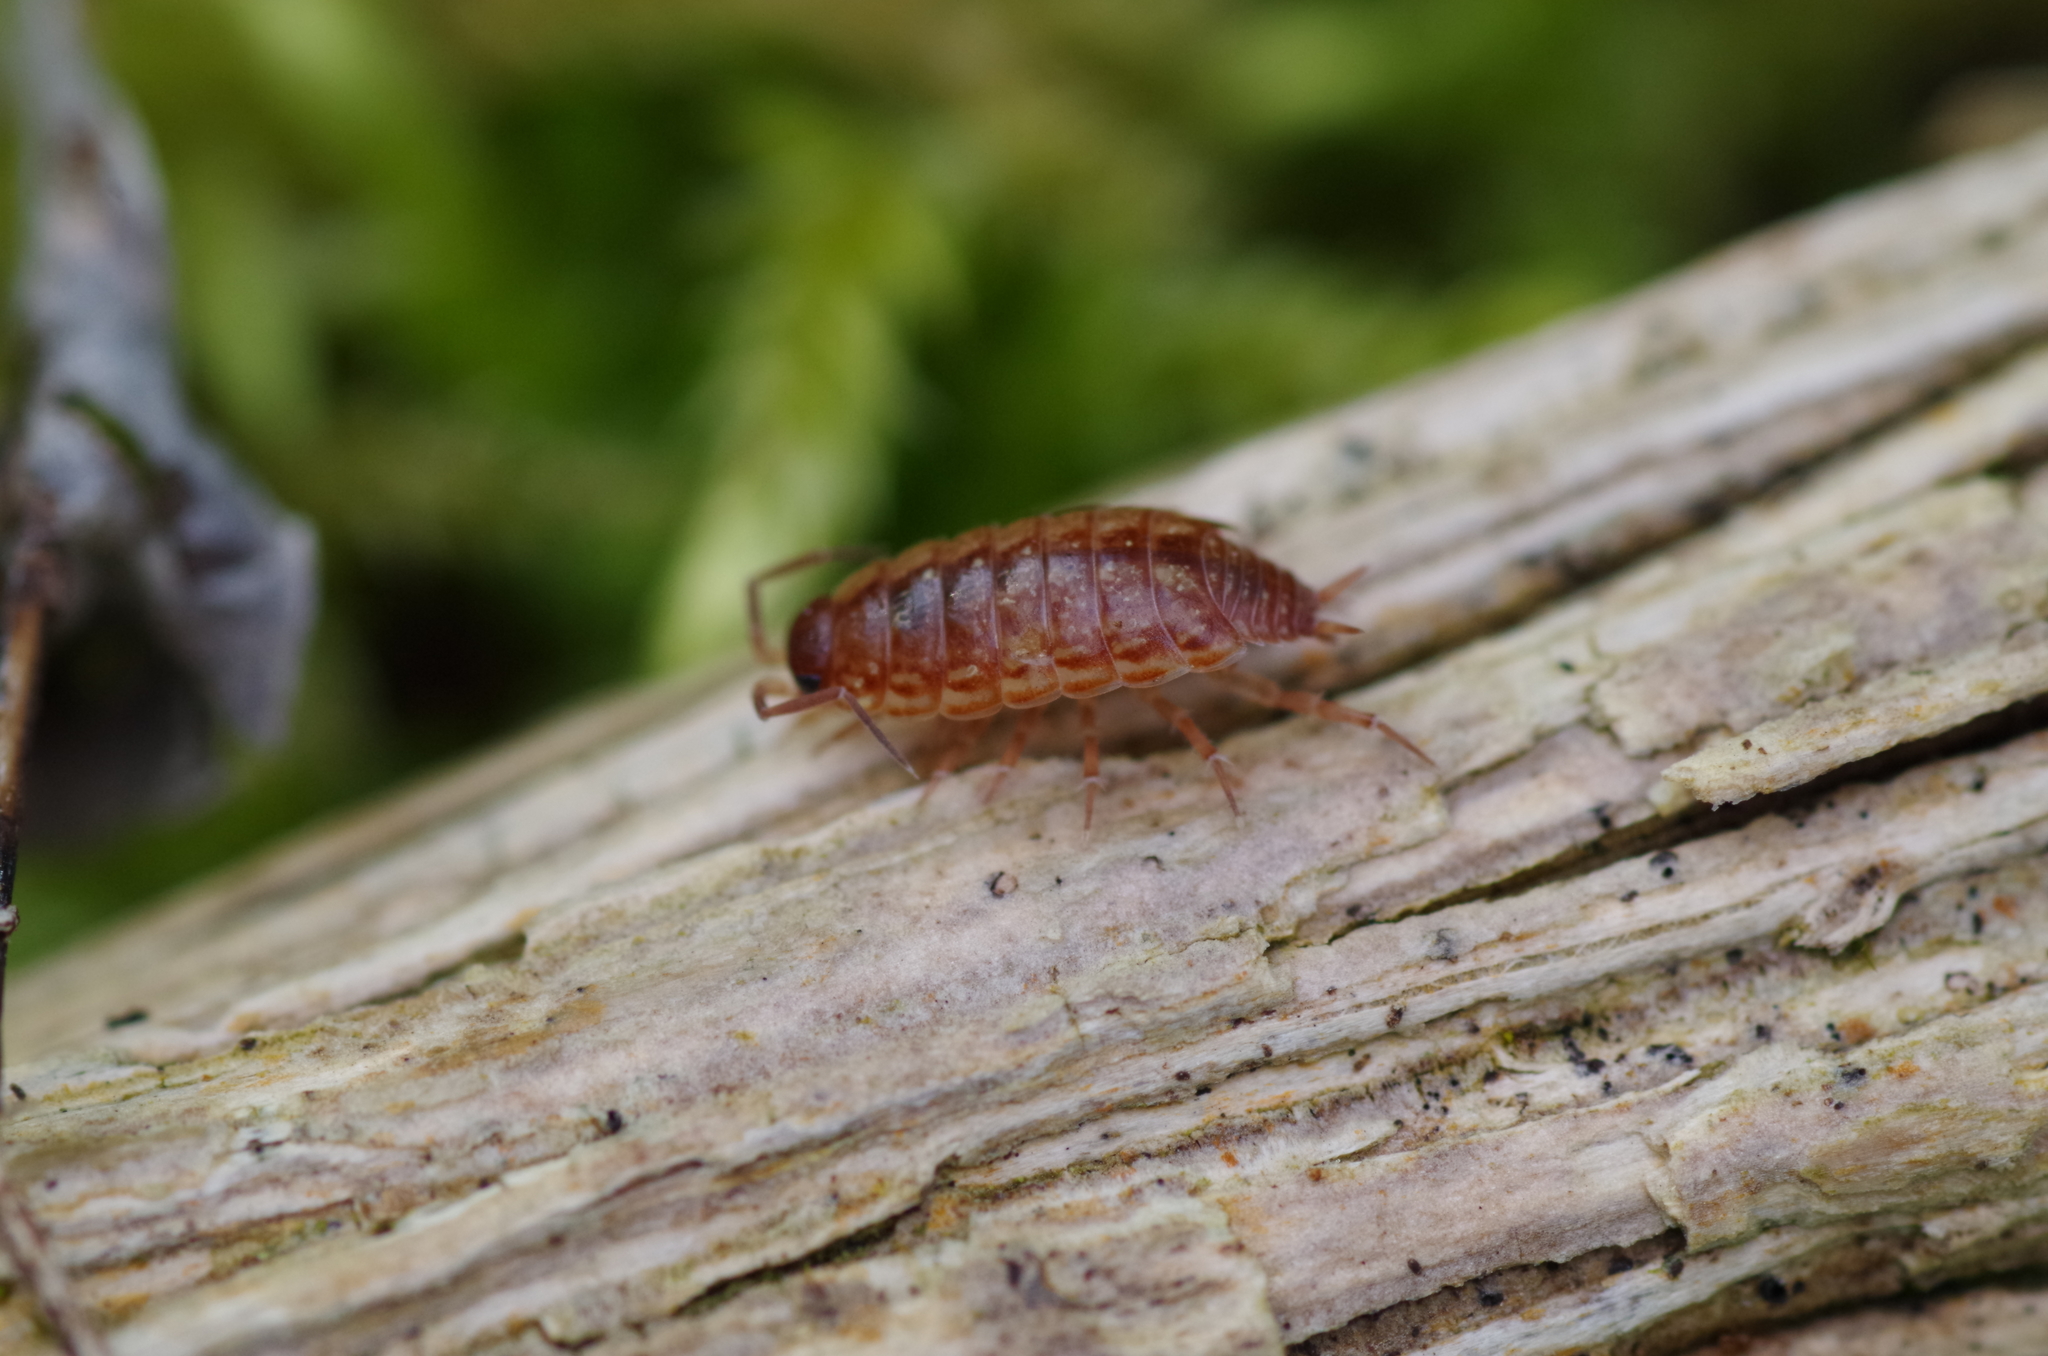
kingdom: Animalia
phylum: Arthropoda
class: Malacostraca
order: Isopoda
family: Philosciidae
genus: Philoscia
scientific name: Philoscia muscorum
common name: Common striped woodlouse
